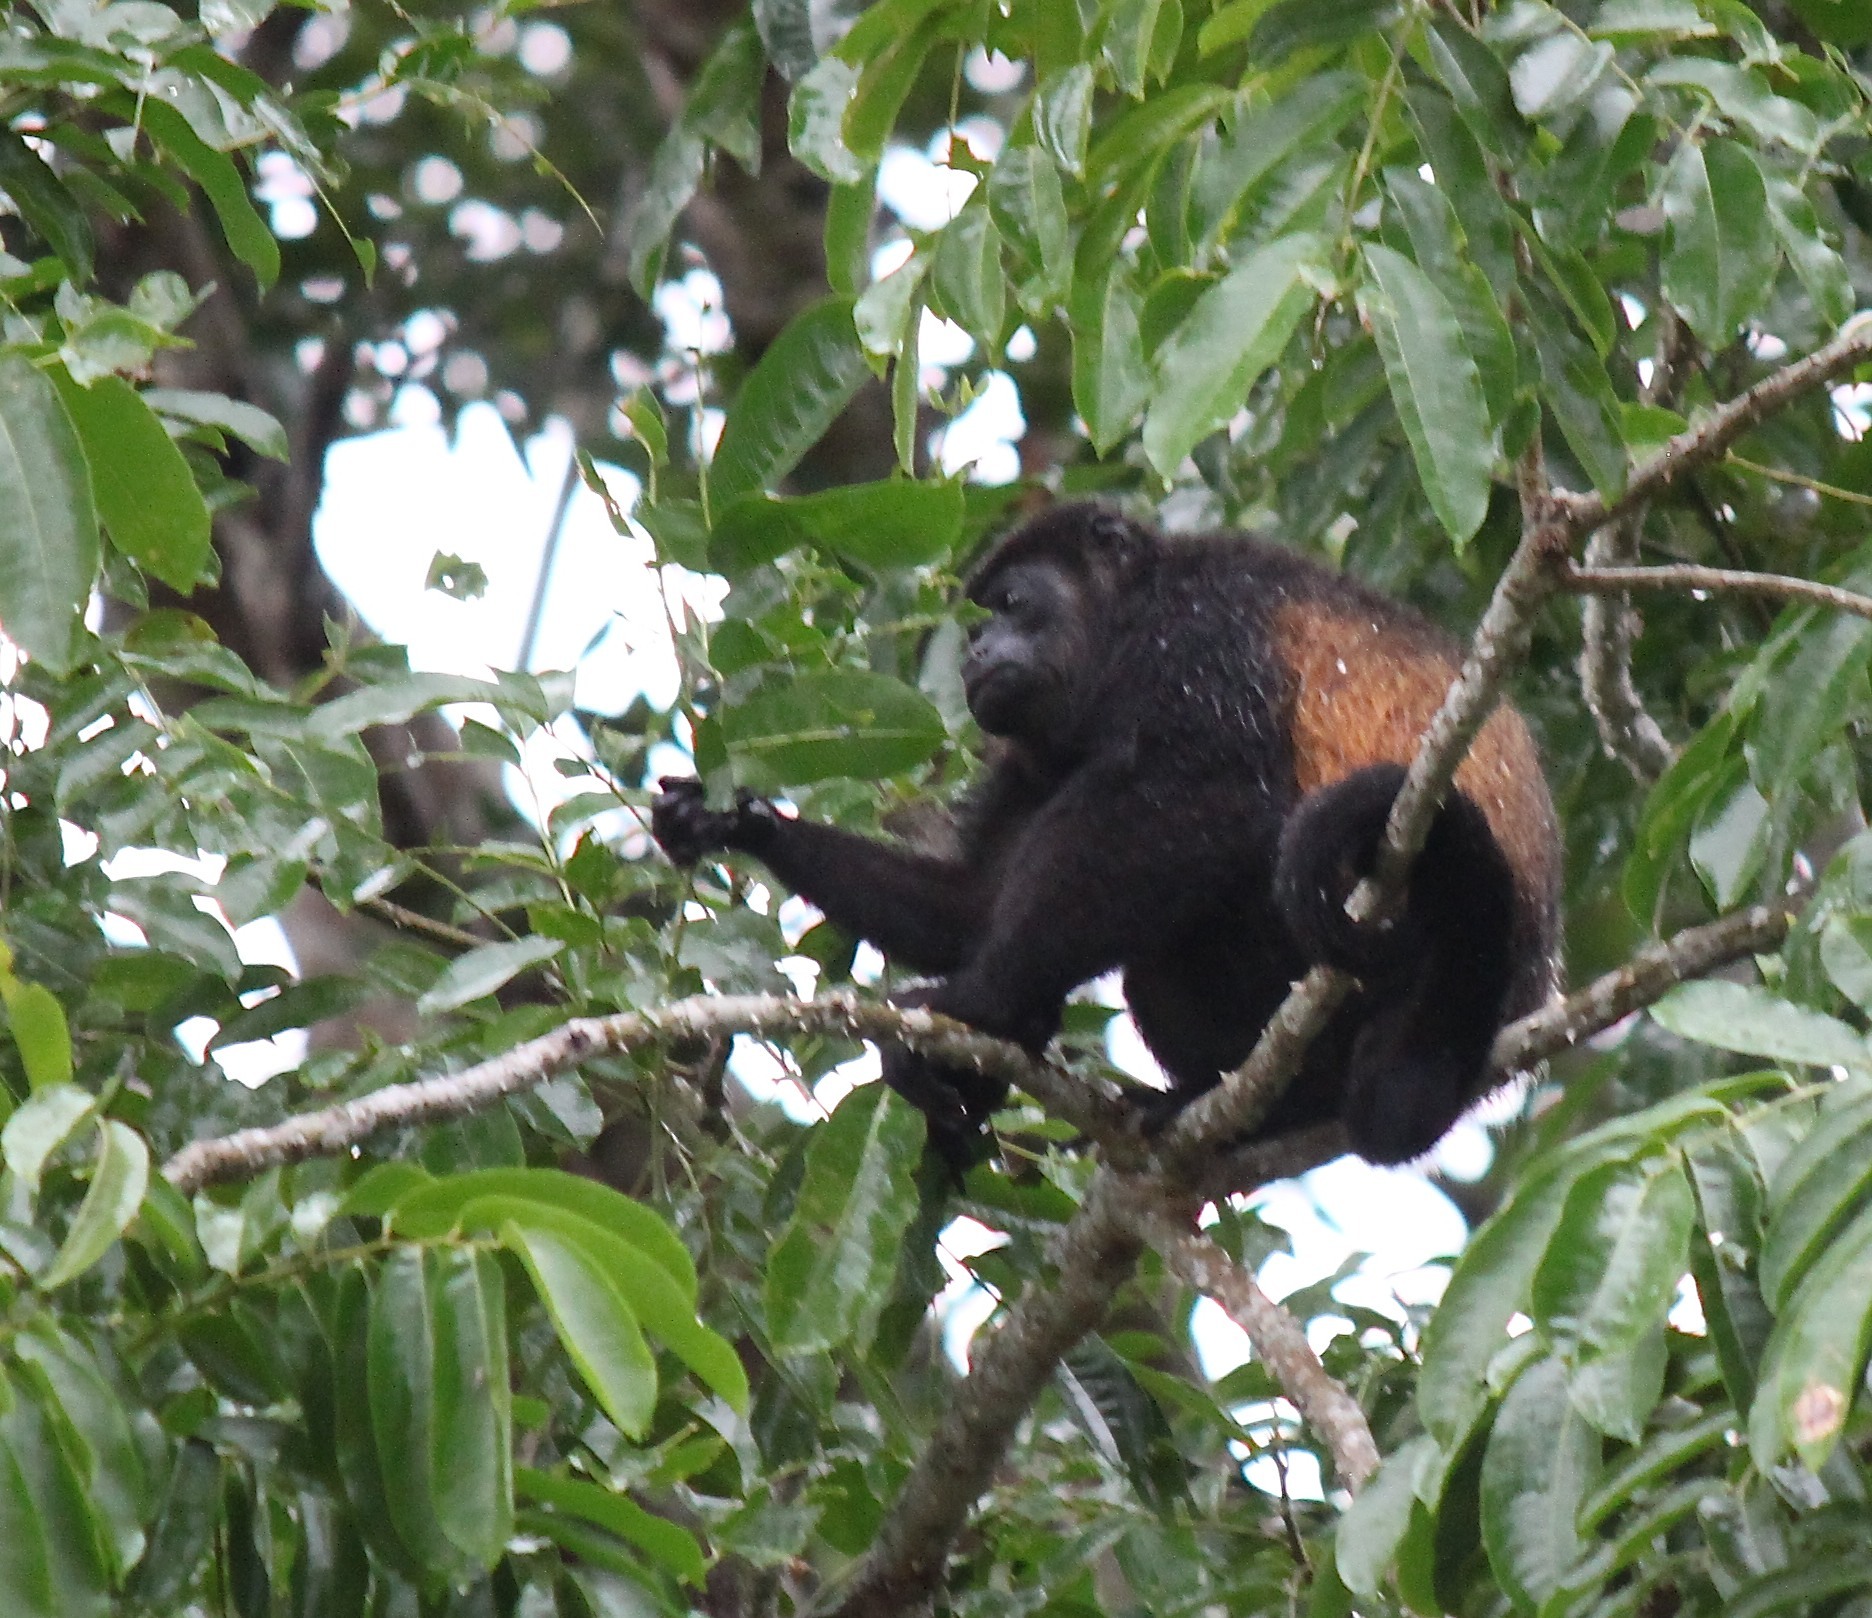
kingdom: Animalia
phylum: Chordata
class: Mammalia
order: Primates
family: Atelidae
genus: Alouatta
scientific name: Alouatta palliata
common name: Mantled howler
